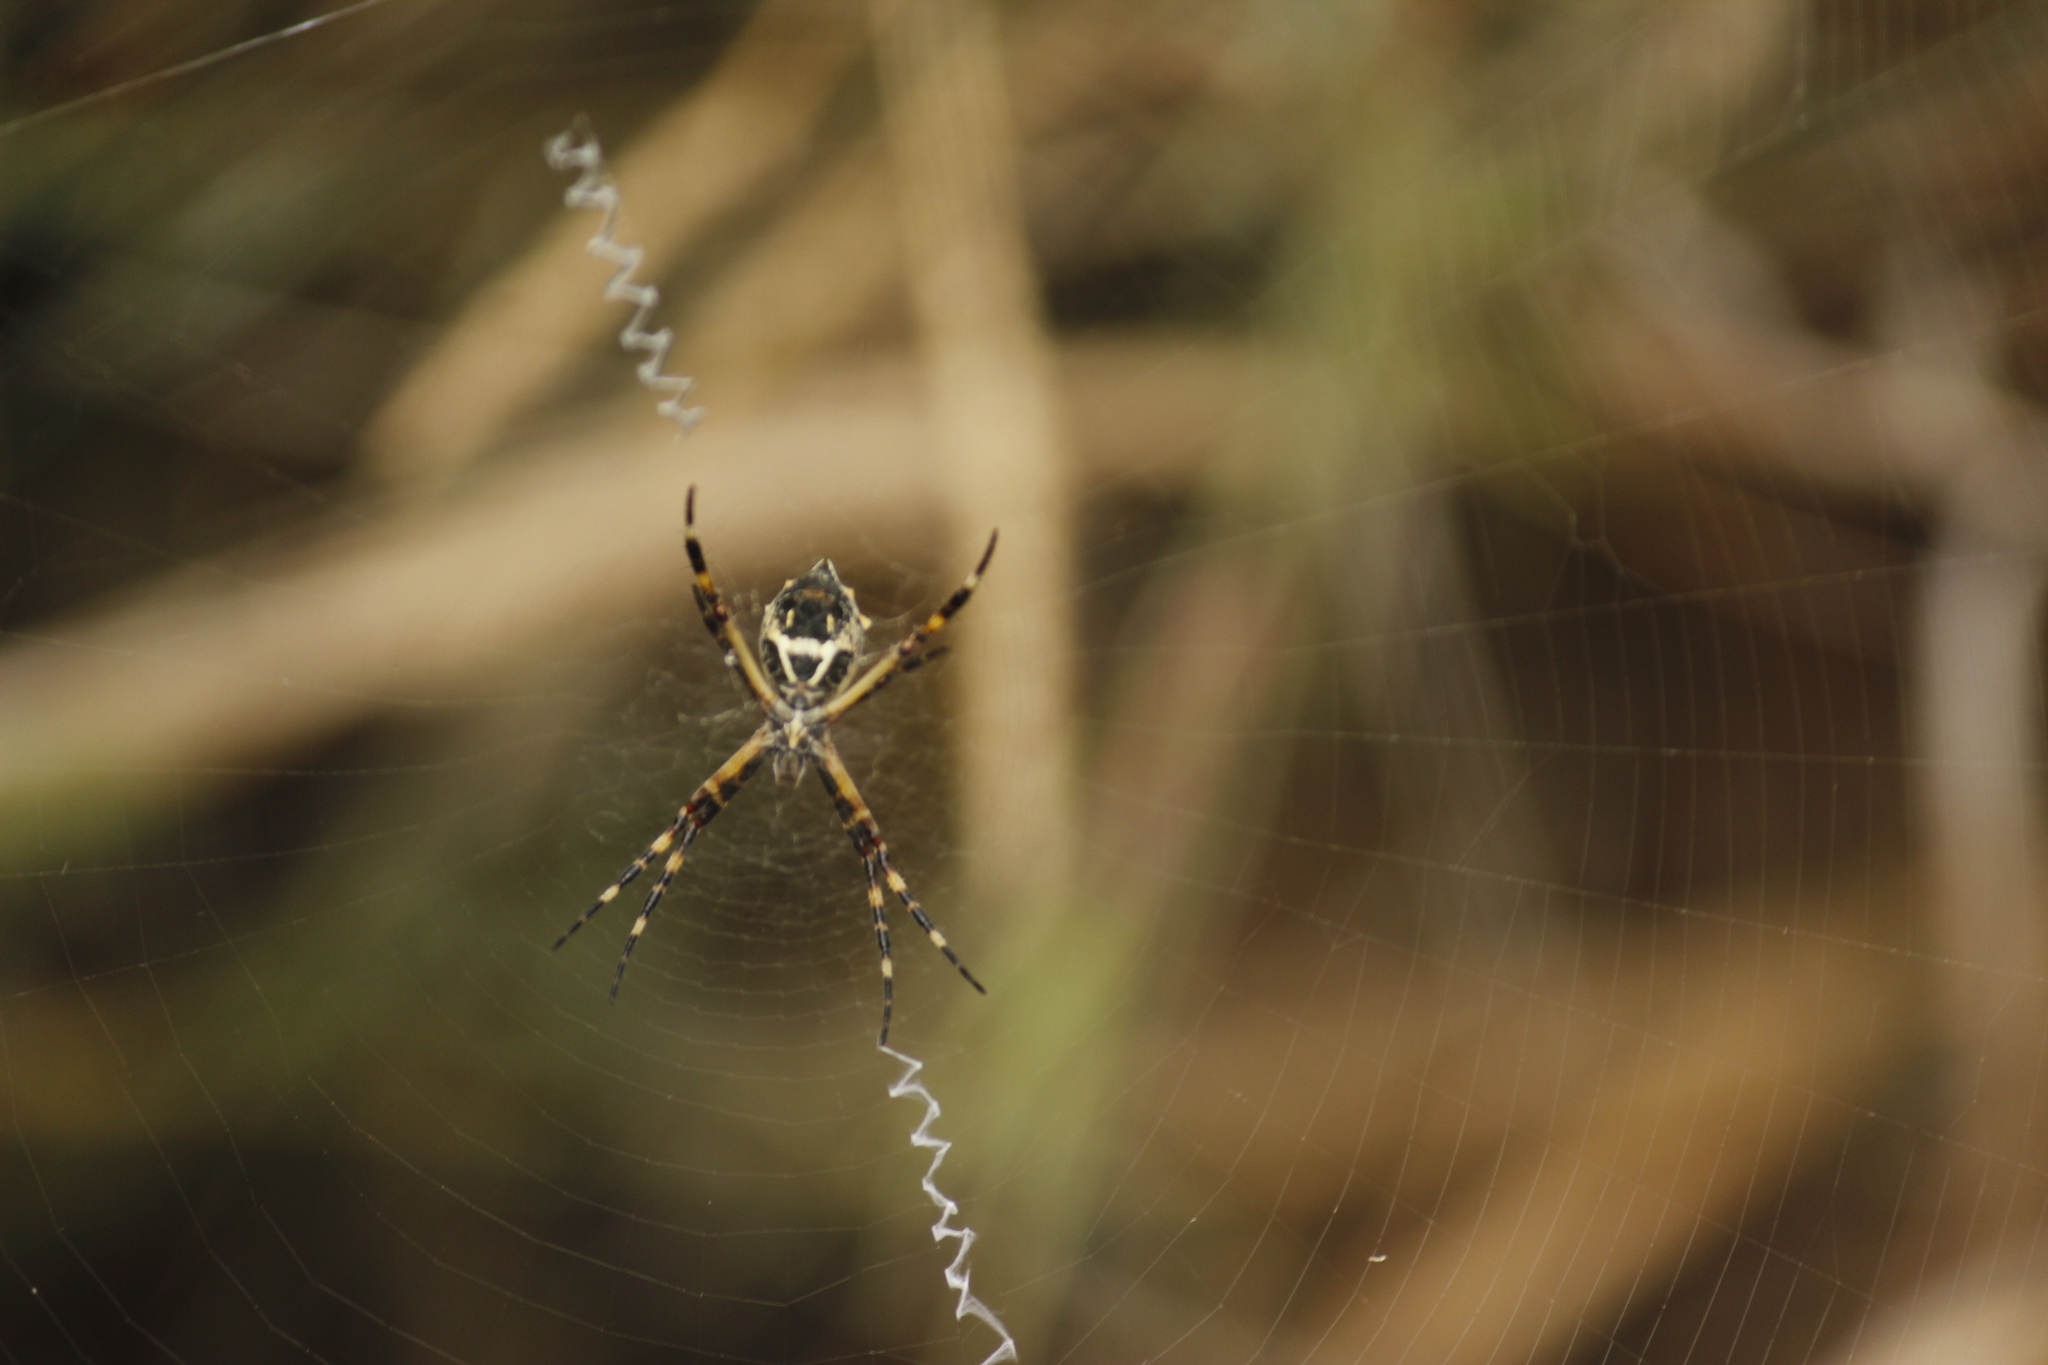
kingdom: Animalia
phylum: Arthropoda
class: Arachnida
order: Araneae
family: Araneidae
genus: Argiope
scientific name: Argiope argentata
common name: Orb weavers
